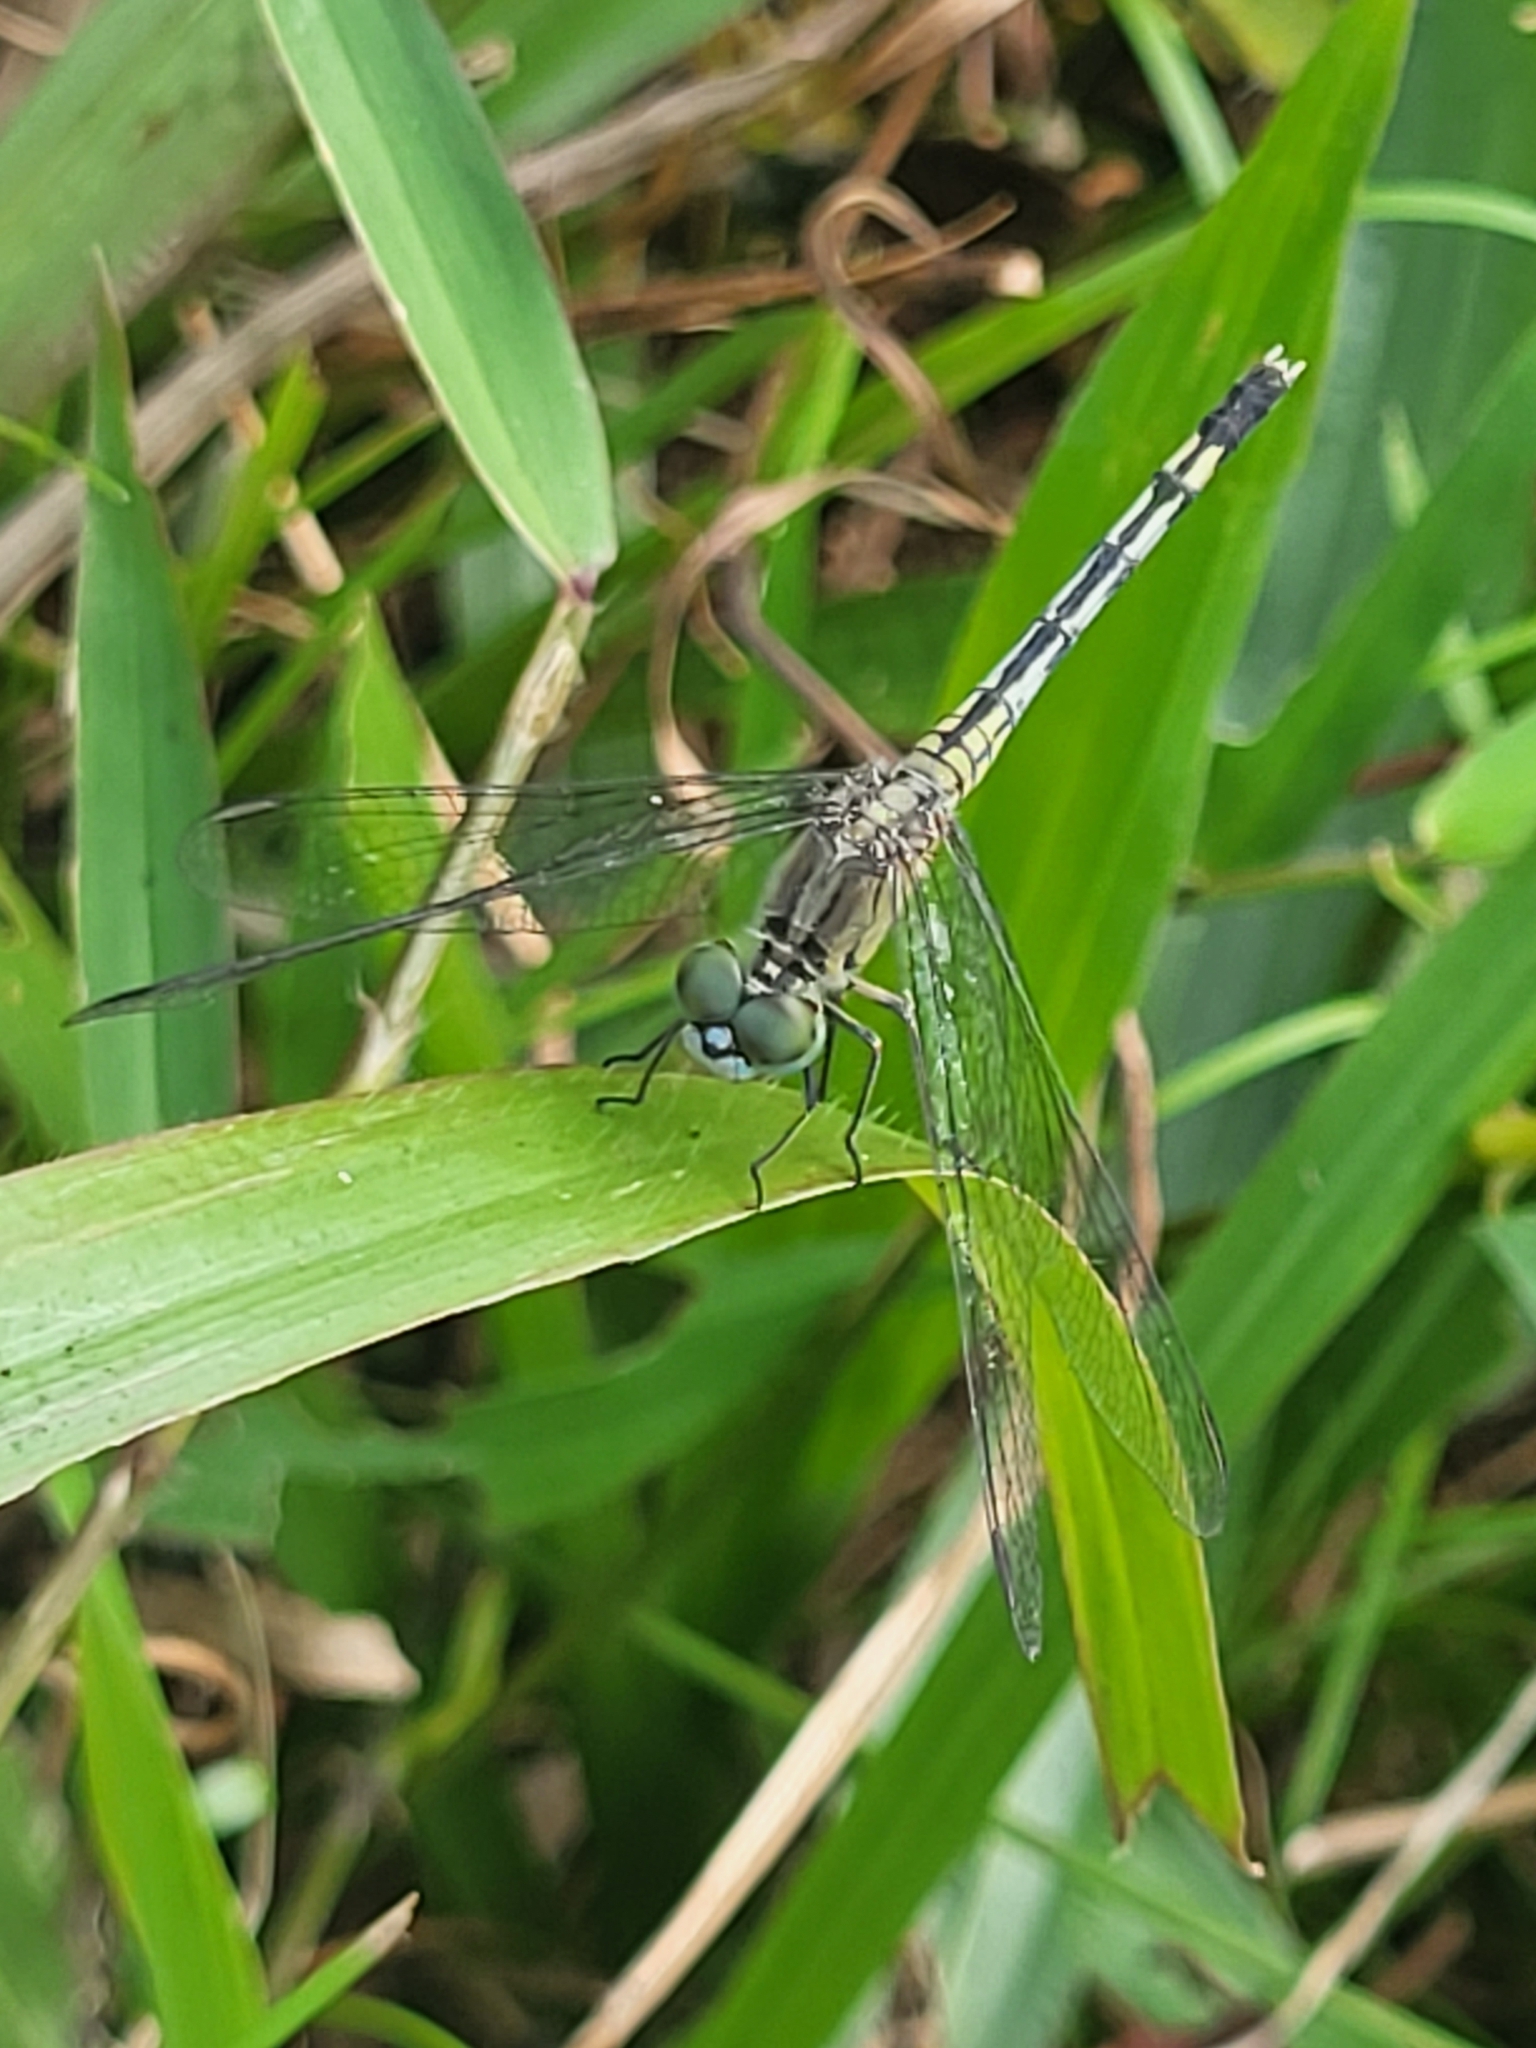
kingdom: Animalia
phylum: Arthropoda
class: Insecta
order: Odonata
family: Libellulidae
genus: Diplacodes
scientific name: Diplacodes trivialis
